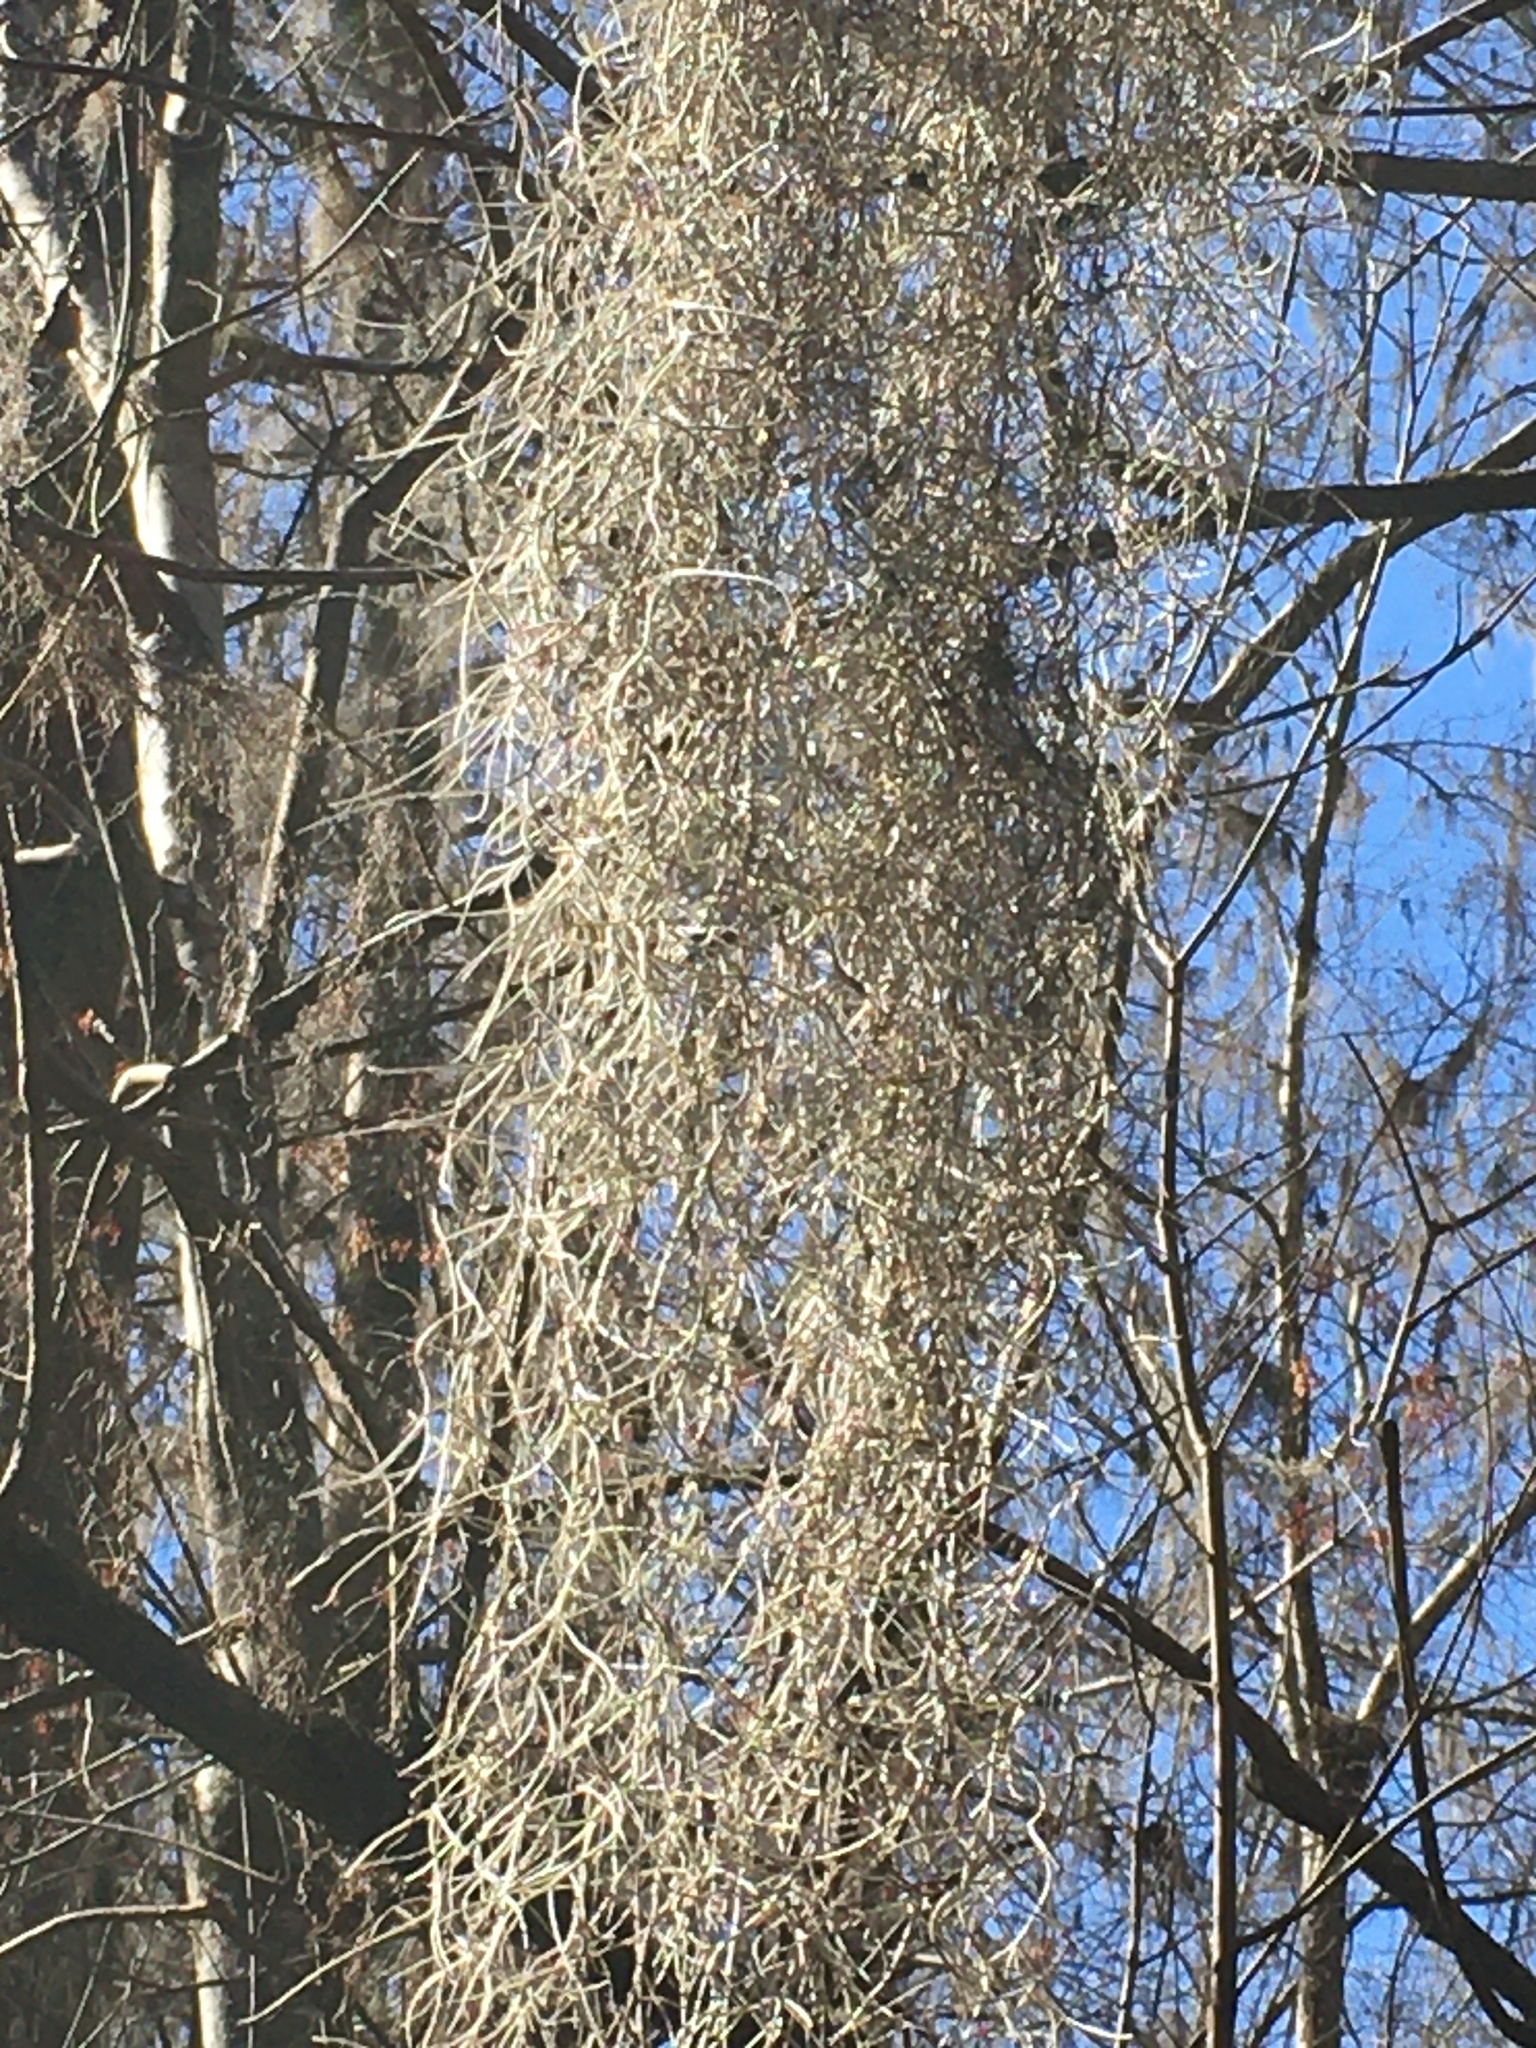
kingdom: Plantae
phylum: Tracheophyta
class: Liliopsida
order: Poales
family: Bromeliaceae
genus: Tillandsia
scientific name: Tillandsia usneoides
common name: Spanish moss
